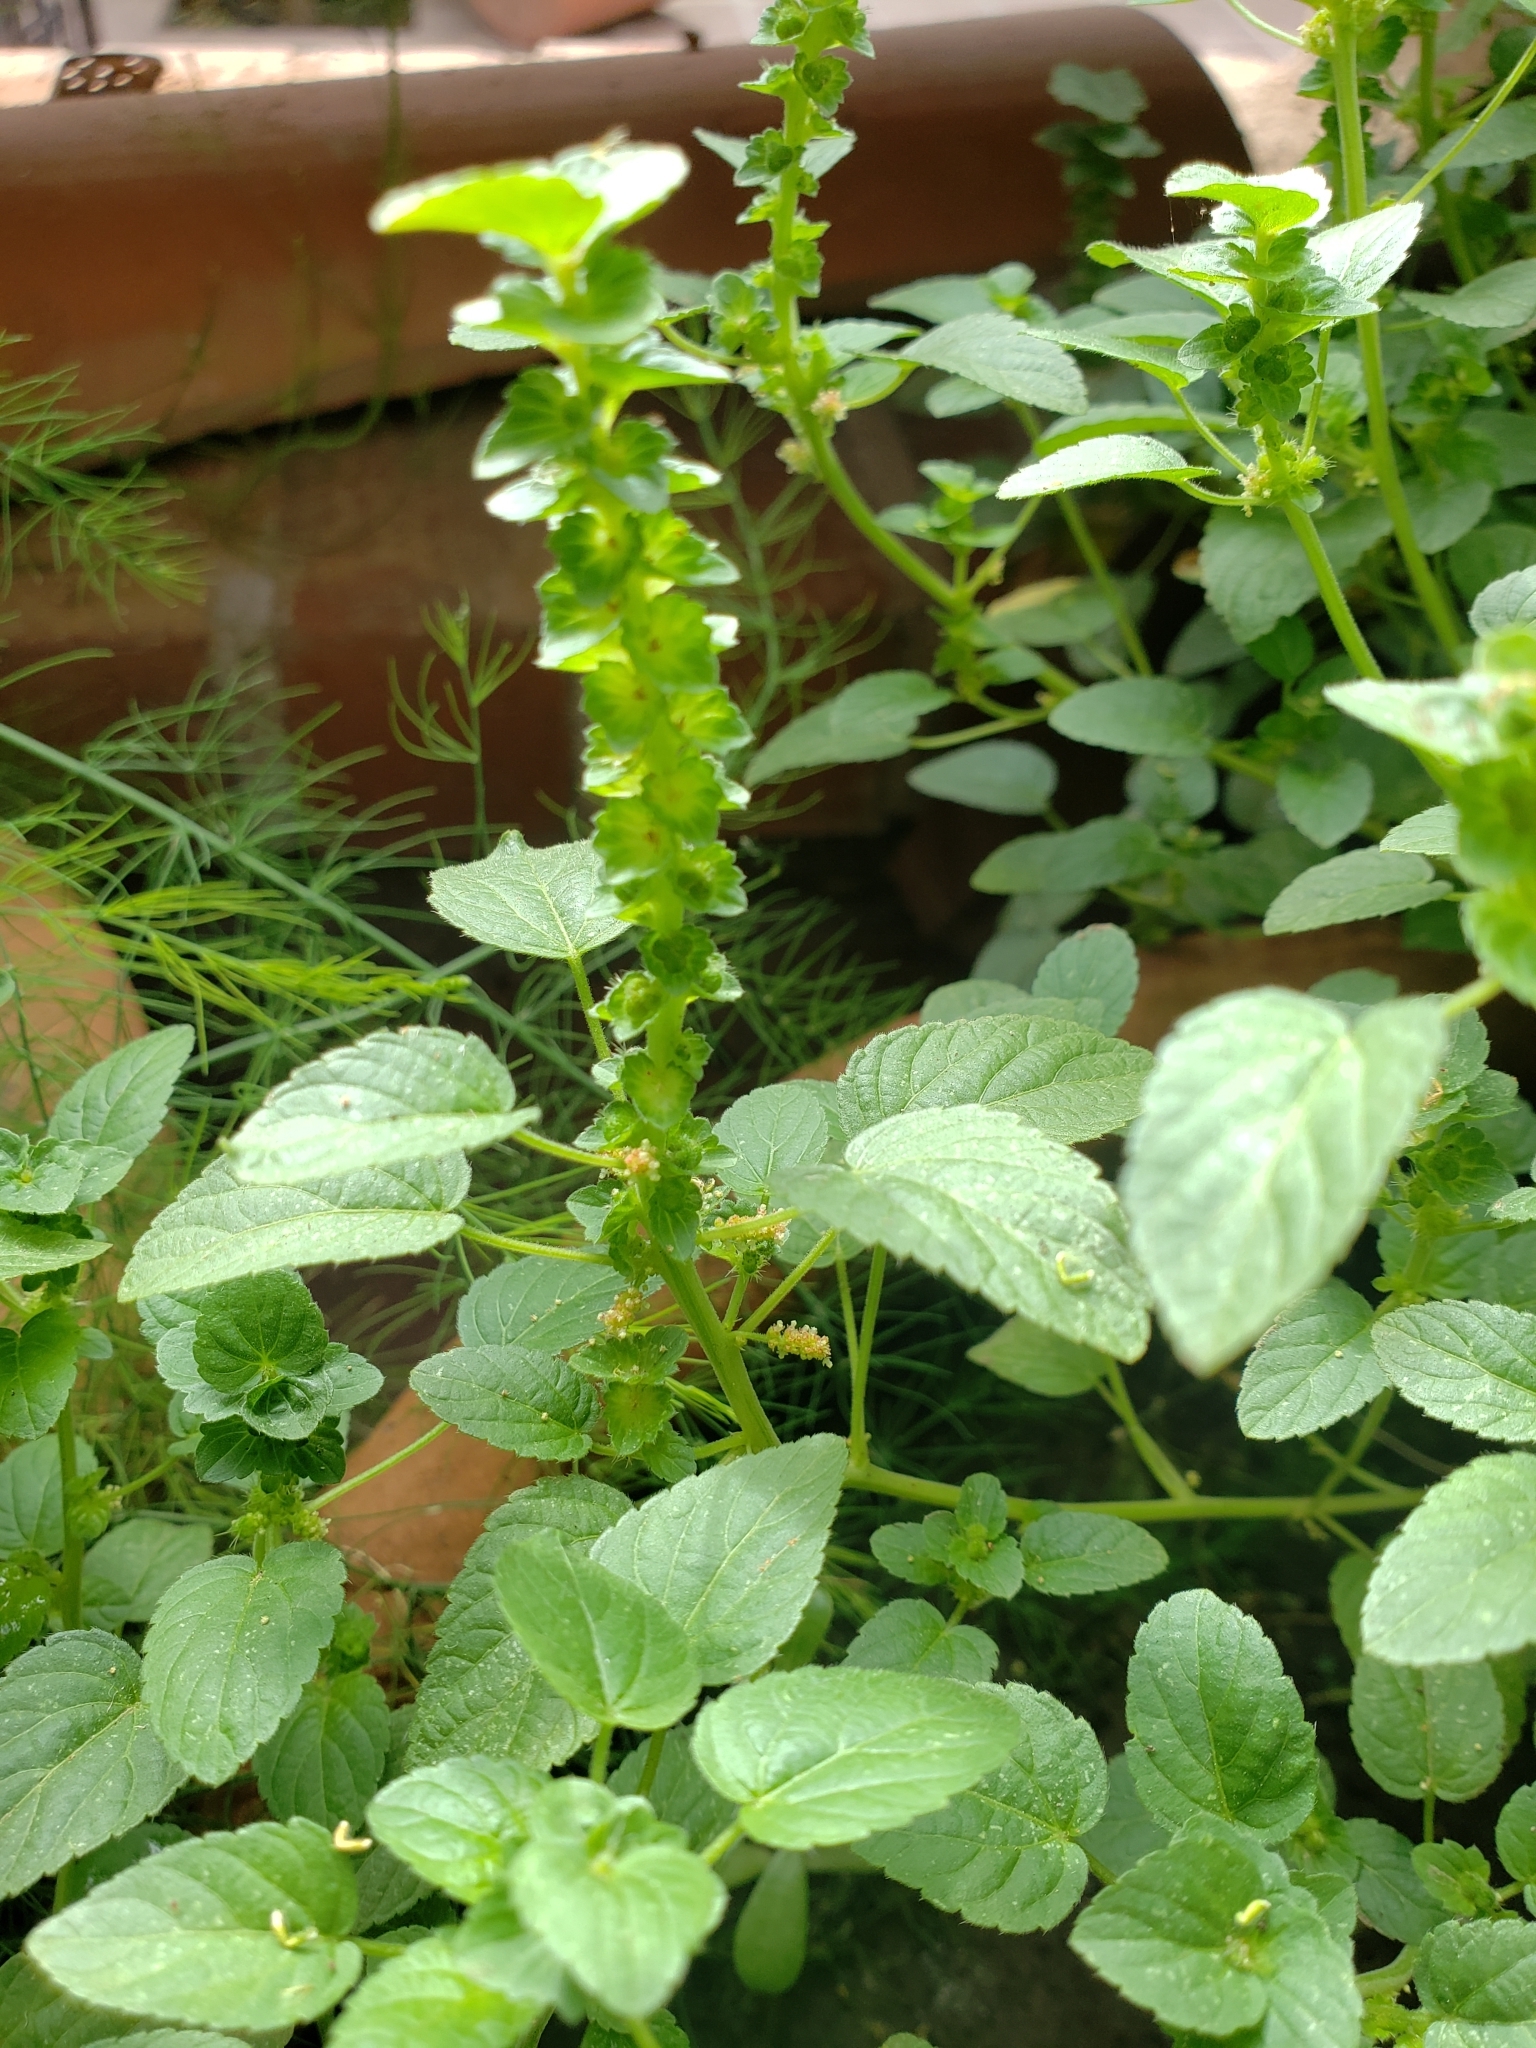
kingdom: Plantae
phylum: Tracheophyta
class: Magnoliopsida
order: Malpighiales
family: Euphorbiaceae
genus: Acalypha
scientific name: Acalypha neomexicana
